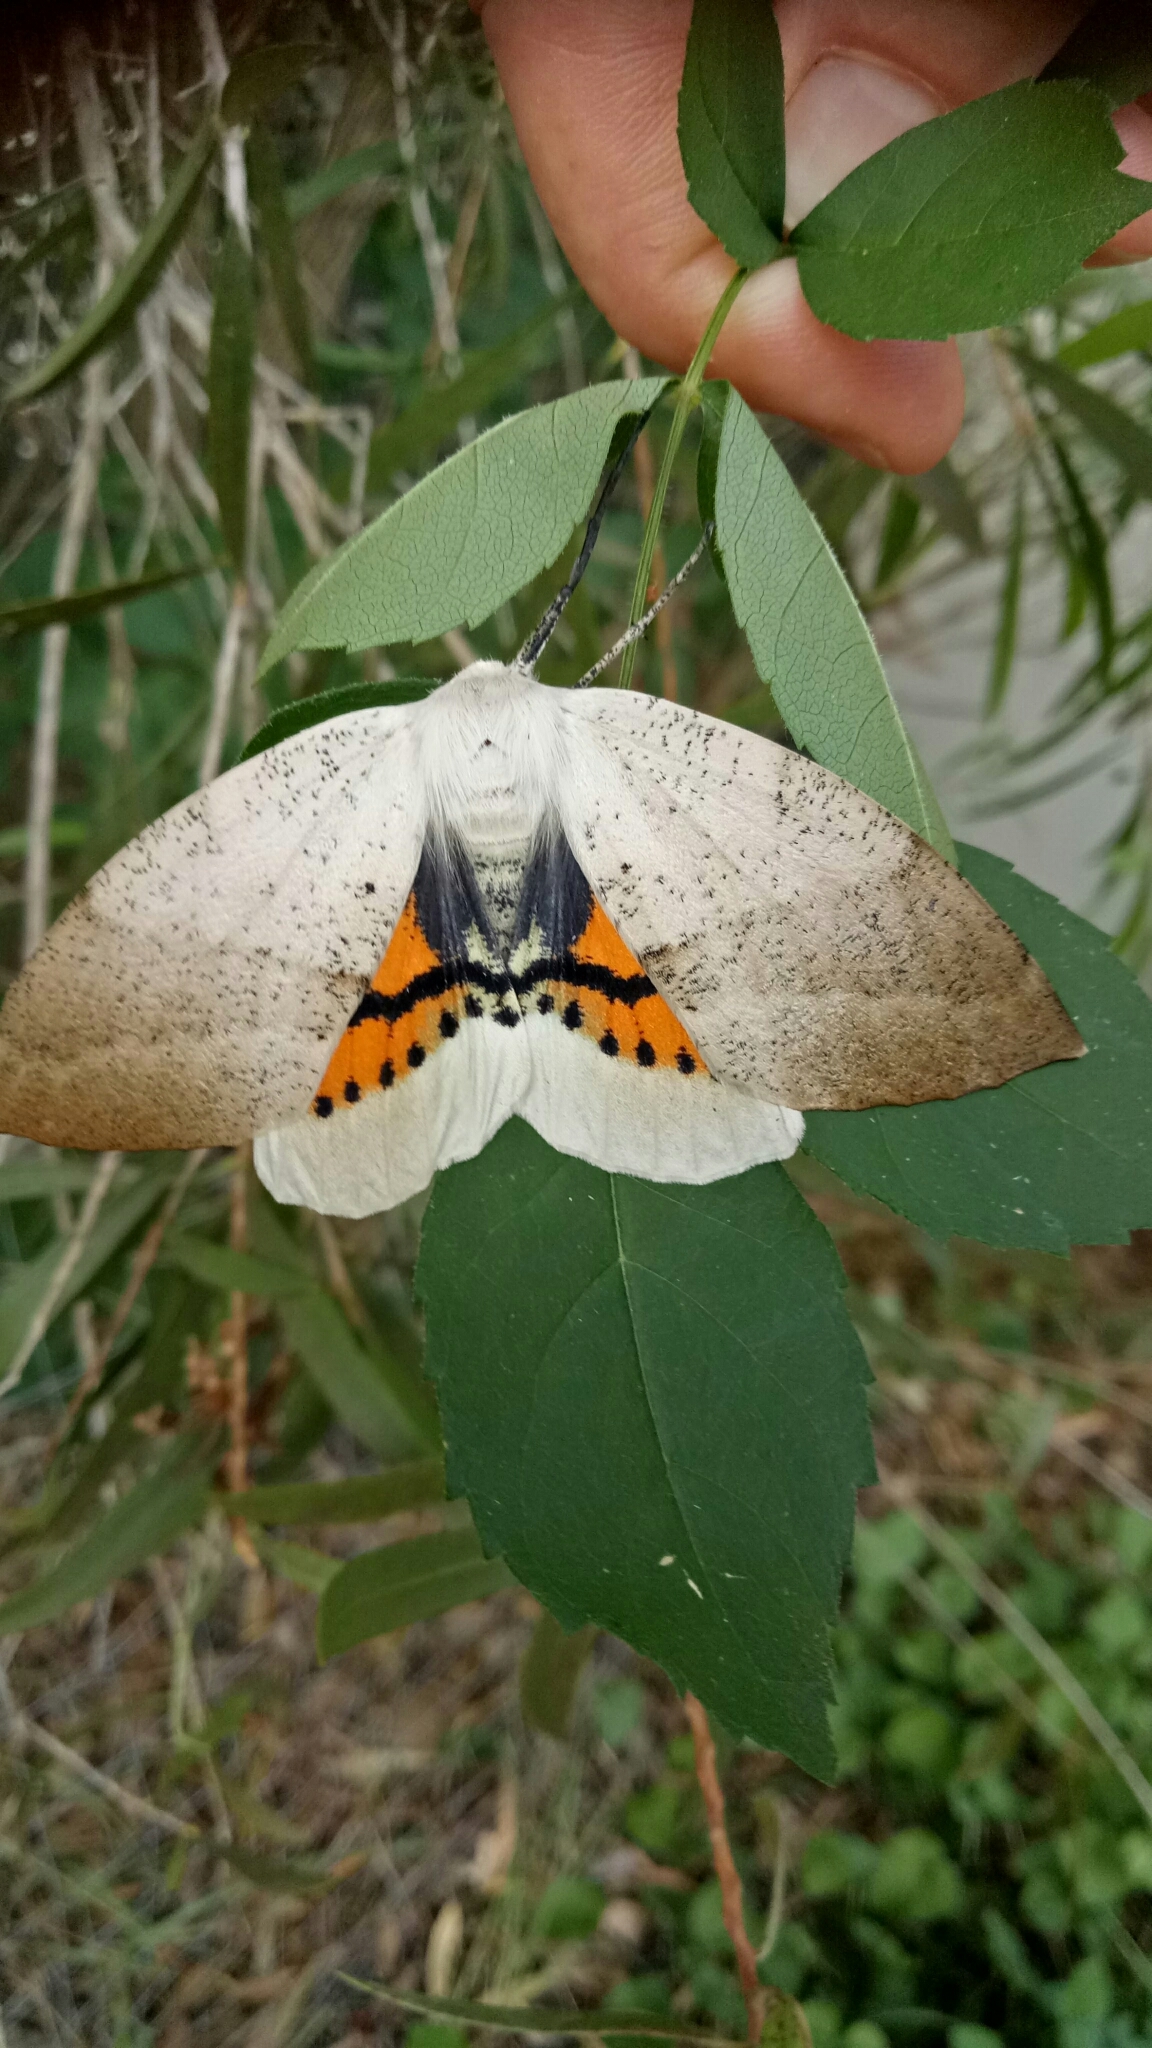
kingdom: Animalia
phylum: Arthropoda
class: Insecta
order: Lepidoptera
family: Geometridae
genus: Gastrophora
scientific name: Gastrophora henricaria
